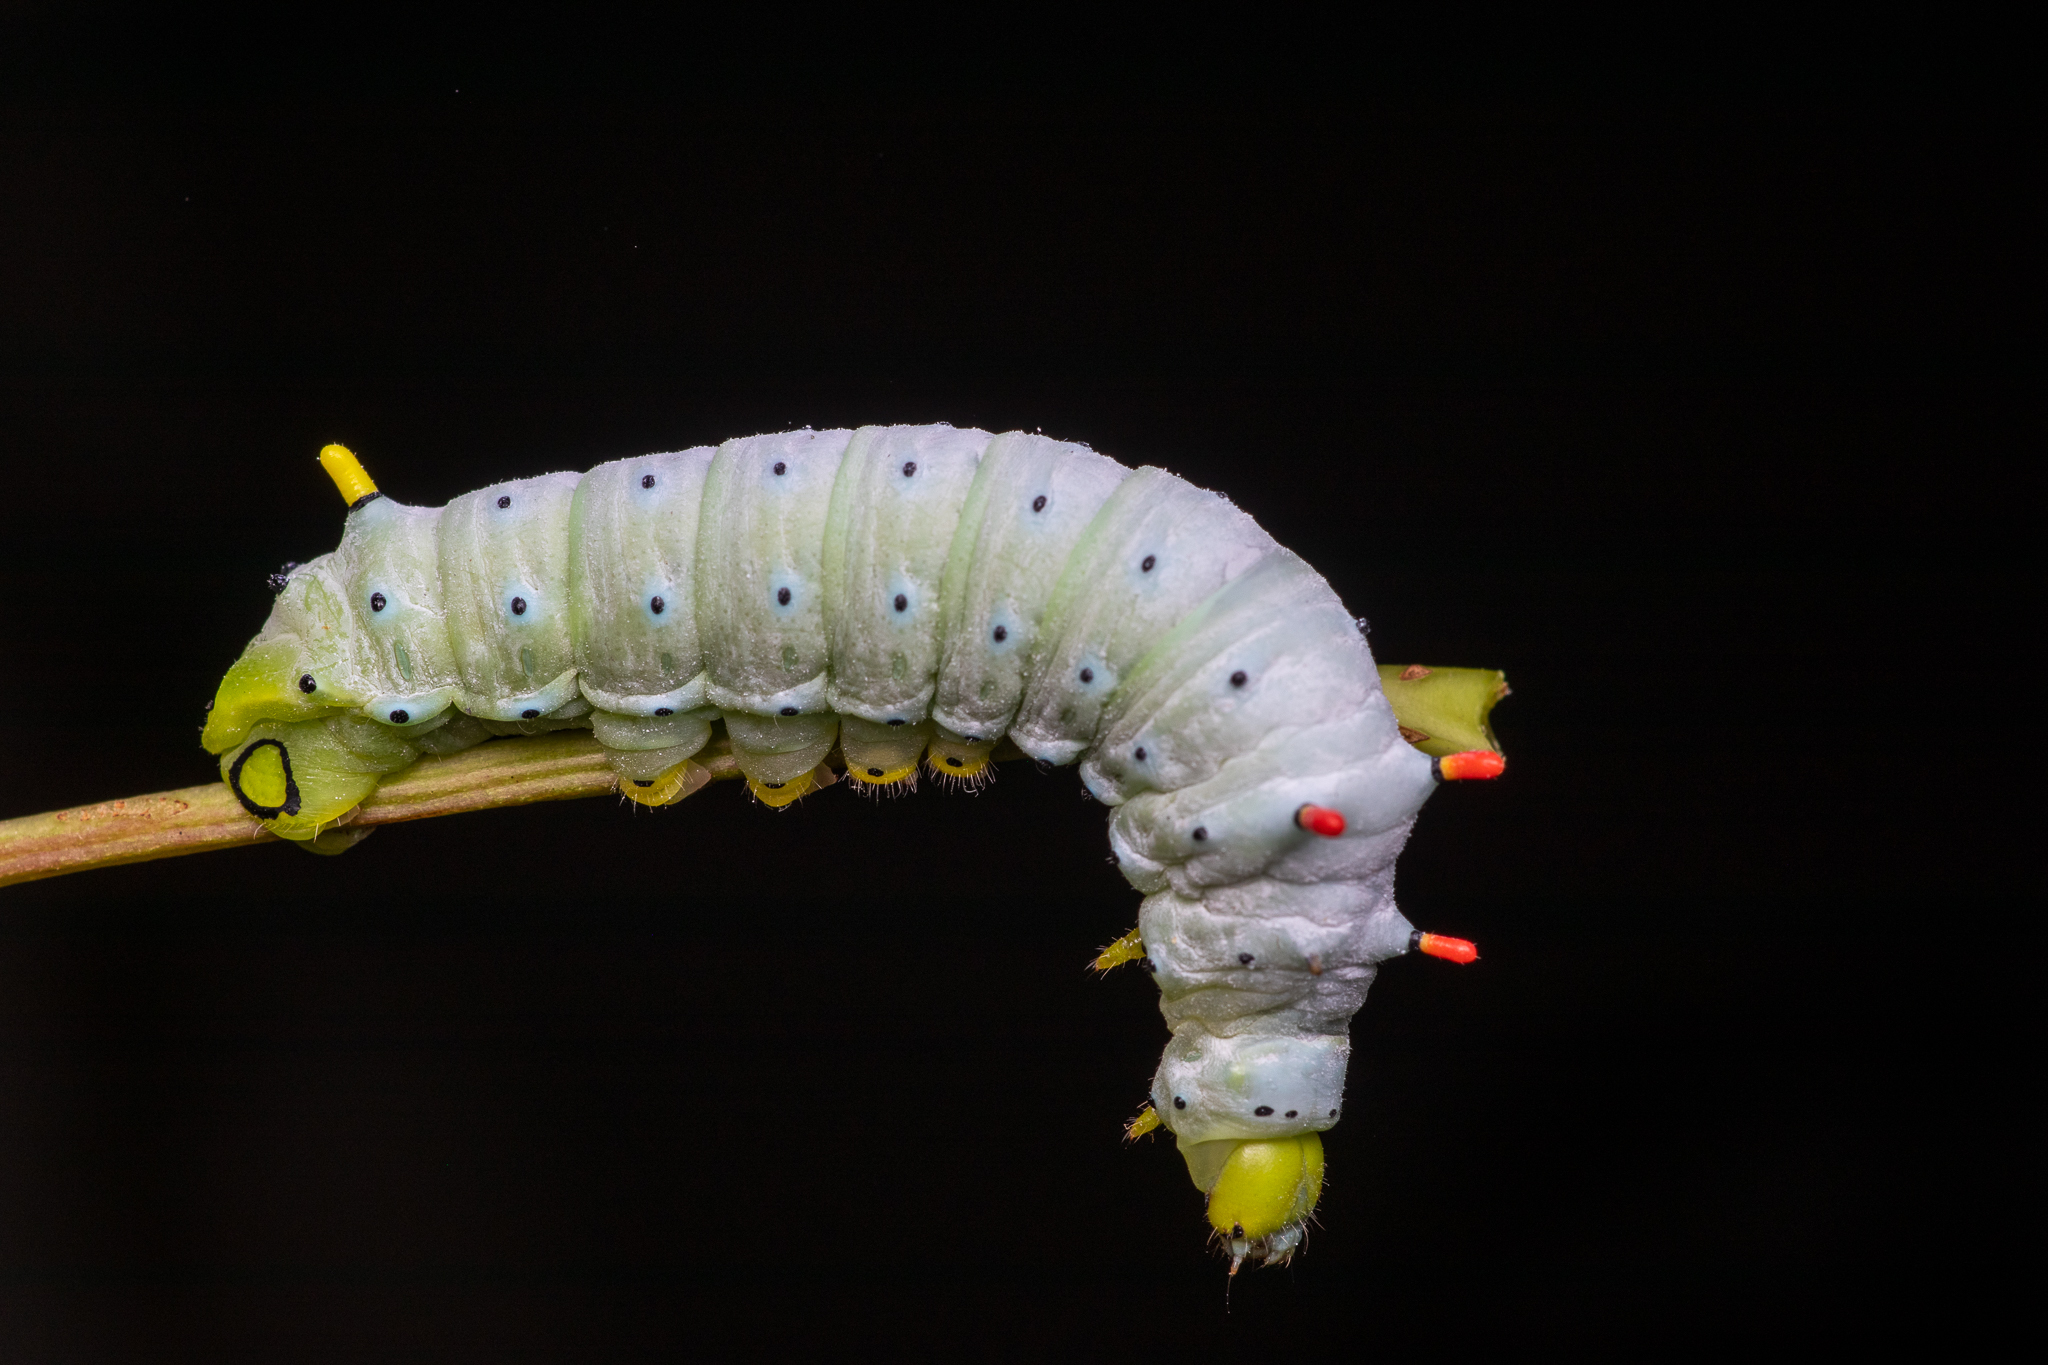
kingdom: Animalia
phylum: Arthropoda
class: Insecta
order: Lepidoptera
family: Saturniidae
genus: Callosamia
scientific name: Callosamia promethea
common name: Promethea silkmoth
